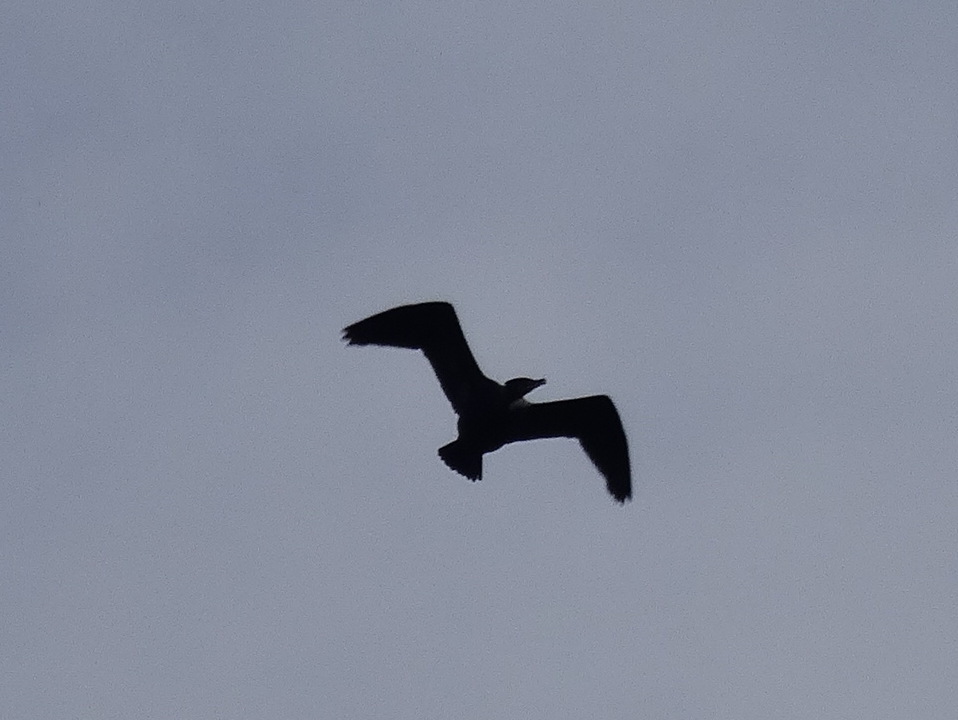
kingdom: Animalia
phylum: Chordata
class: Aves
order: Suliformes
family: Phalacrocoracidae
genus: Phalacrocorax
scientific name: Phalacrocorax auritus
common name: Double-crested cormorant
